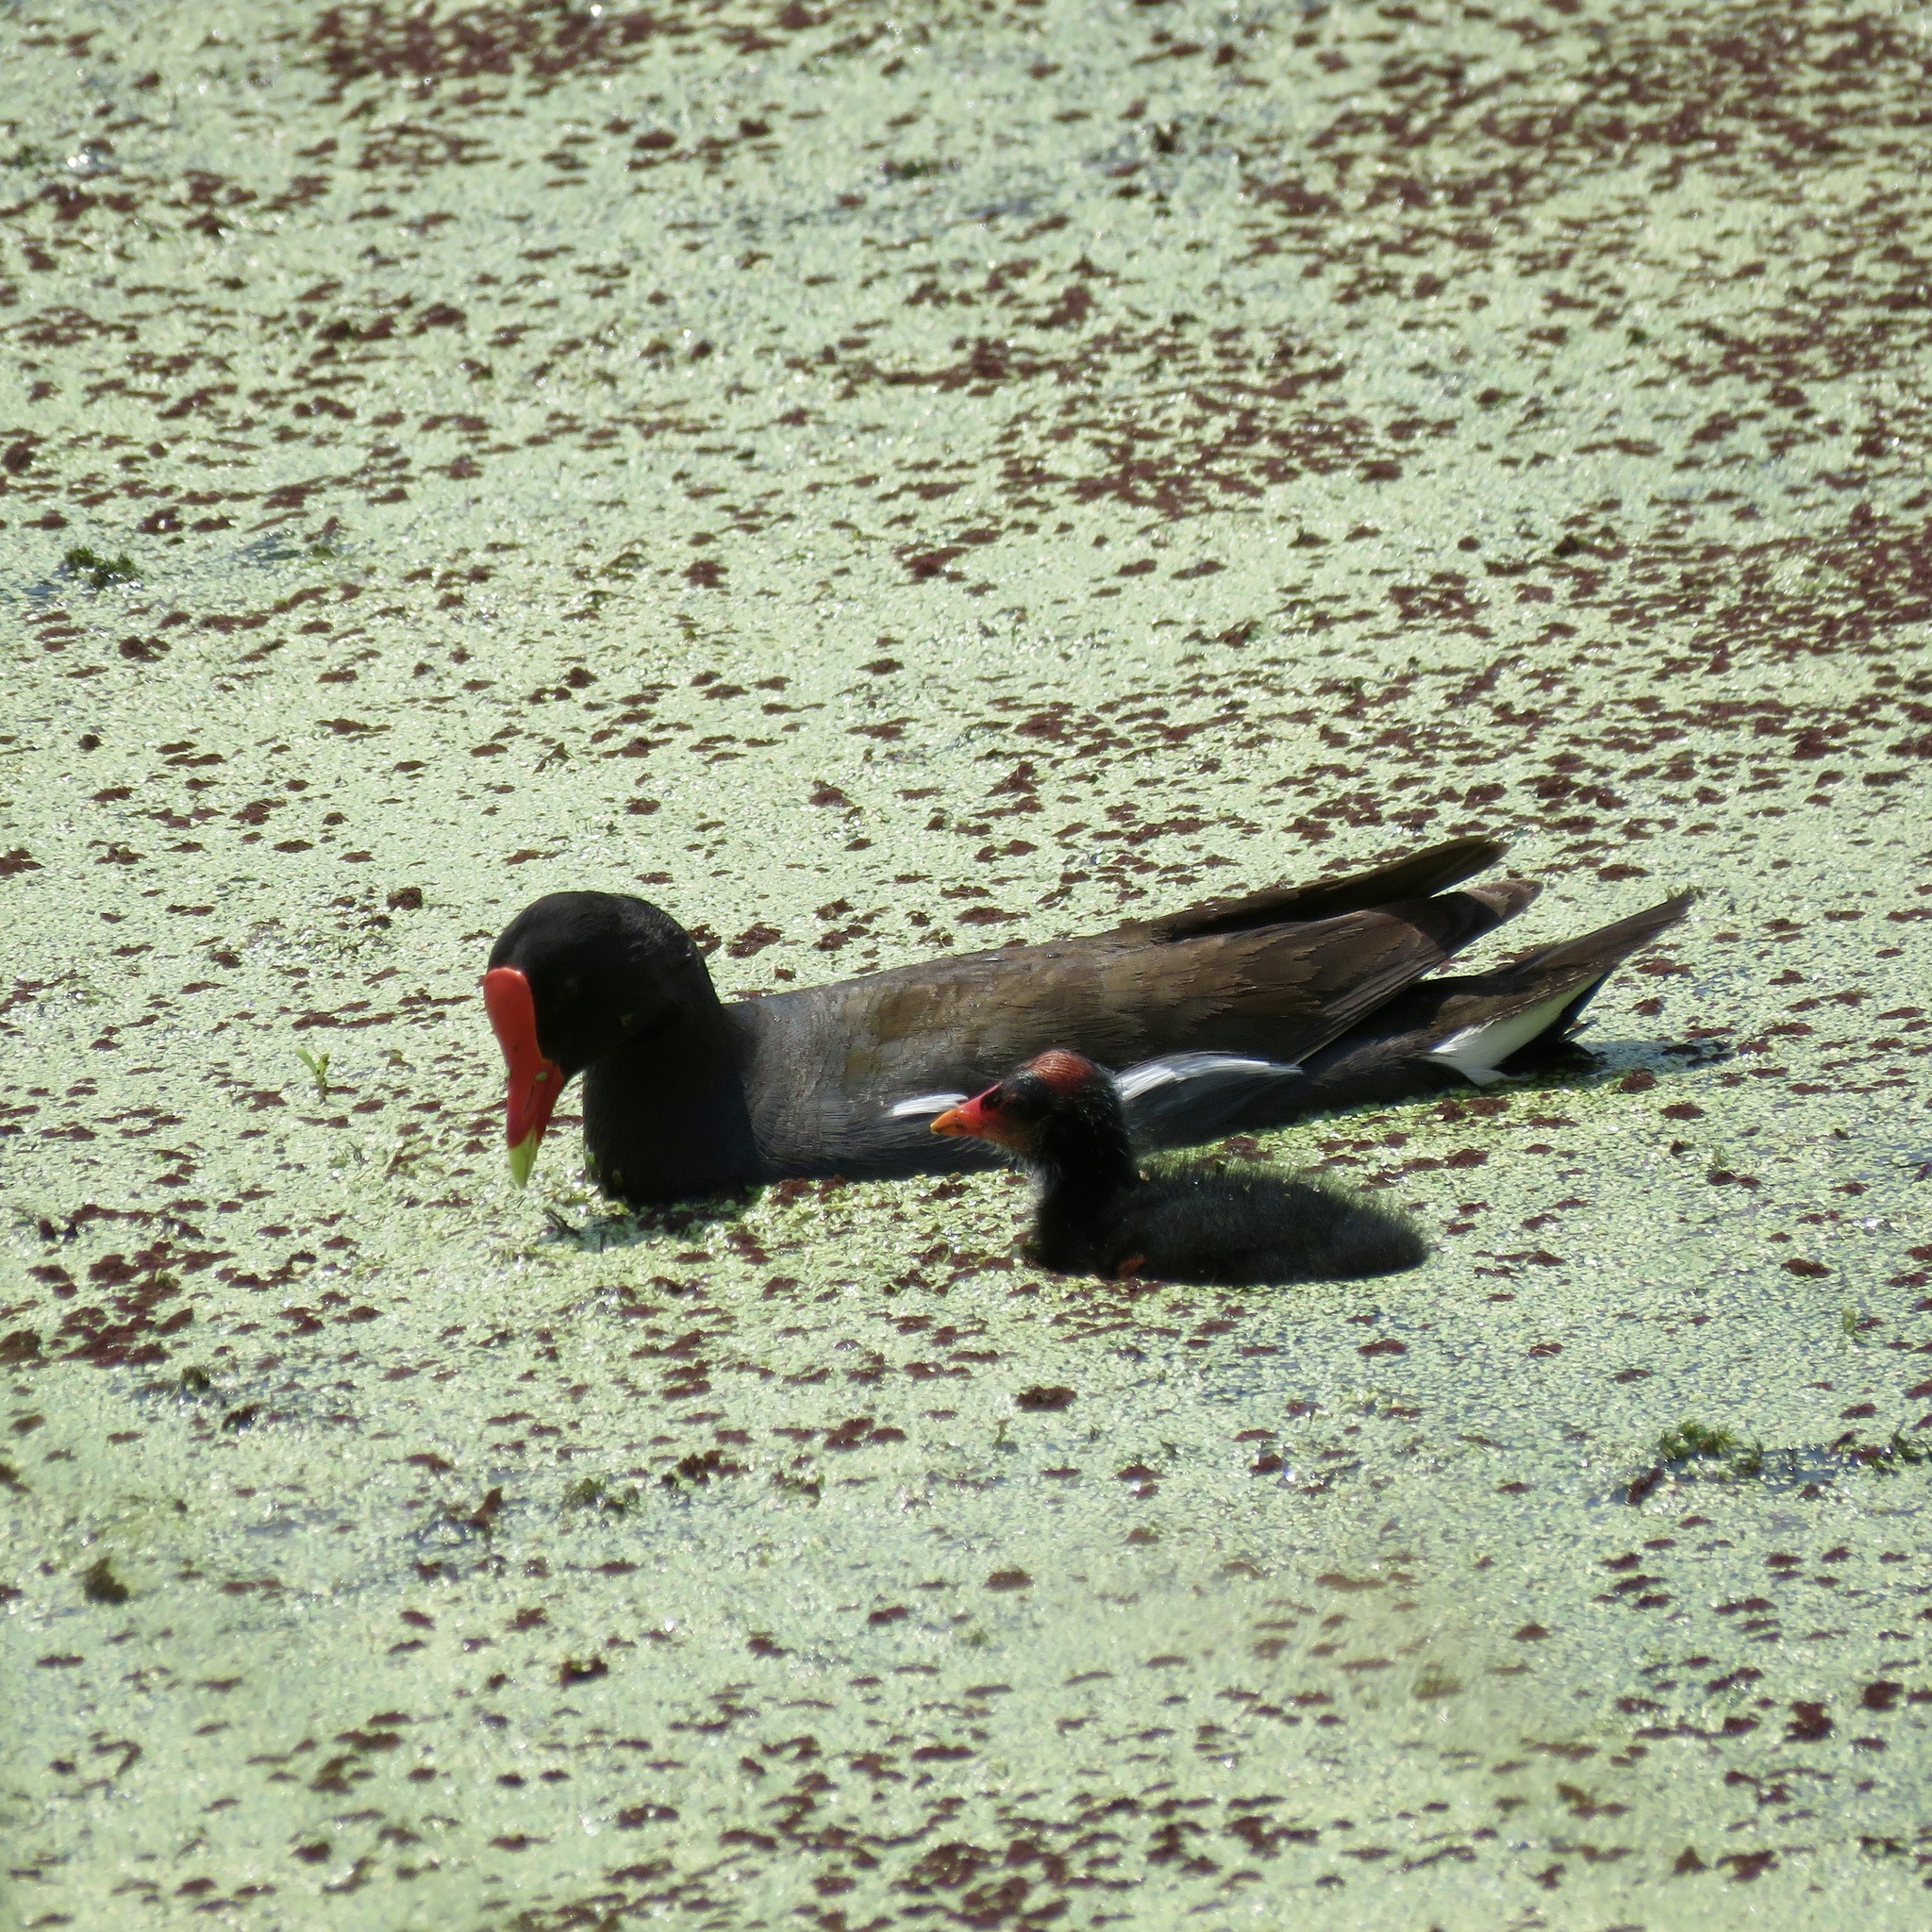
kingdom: Animalia
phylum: Chordata
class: Aves
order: Gruiformes
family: Rallidae
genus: Gallinula
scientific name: Gallinula chloropus
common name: Common moorhen
